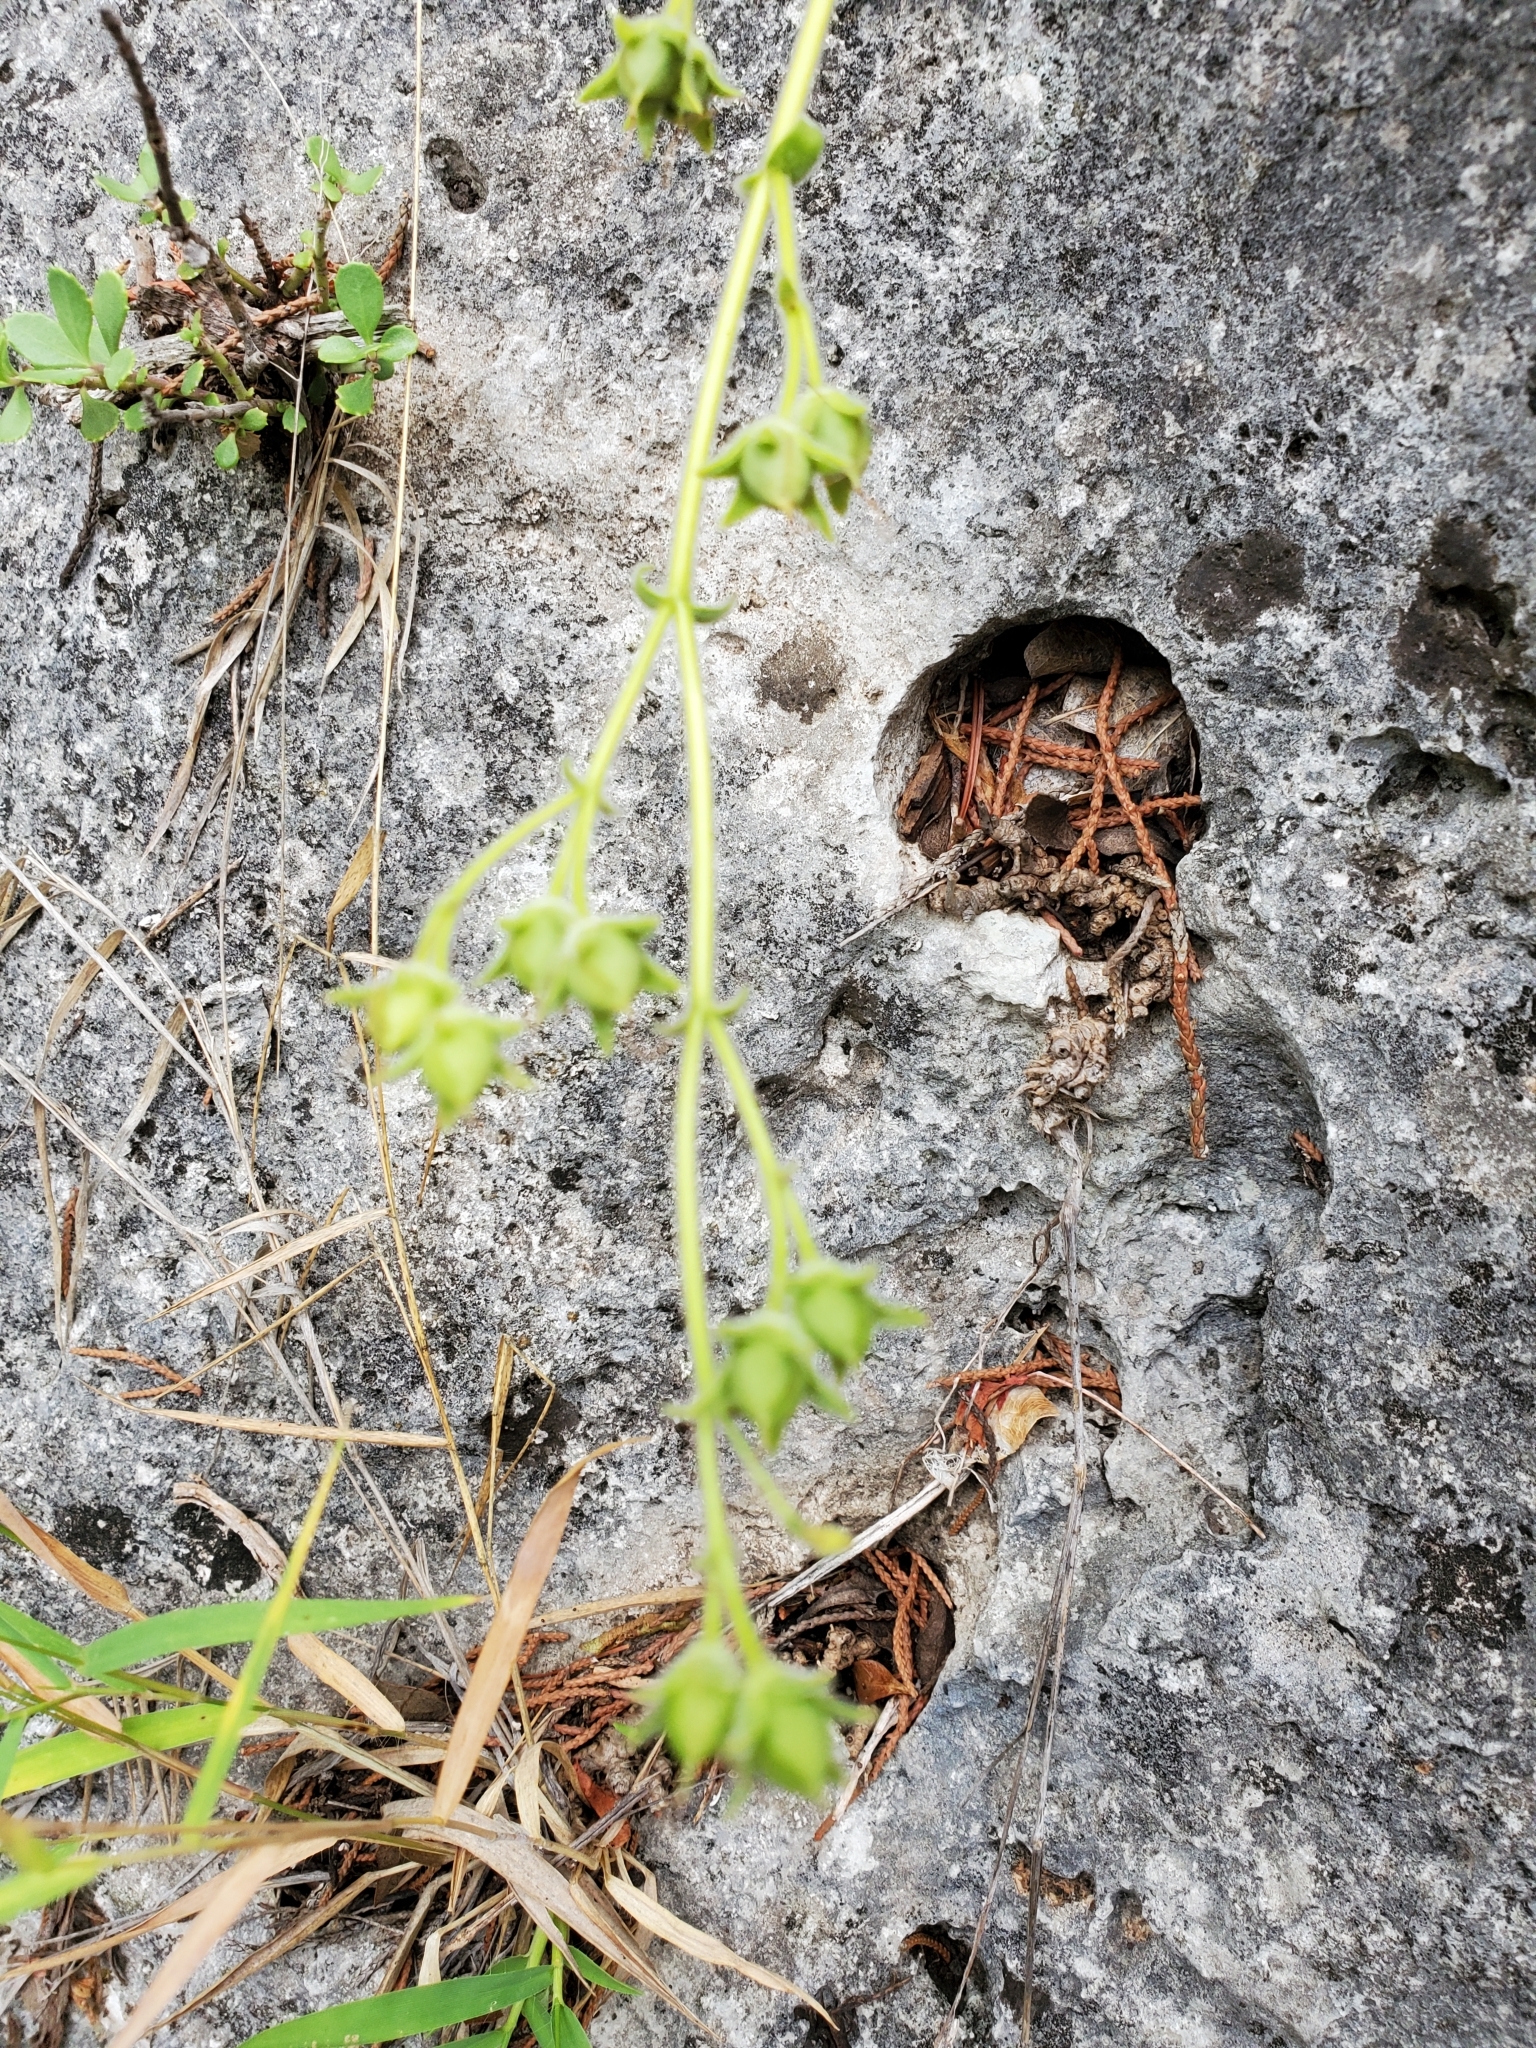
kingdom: Plantae
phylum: Tracheophyta
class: Magnoliopsida
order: Lamiales
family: Plantaginaceae
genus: Penstemon
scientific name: Penstemon baccharifolius
